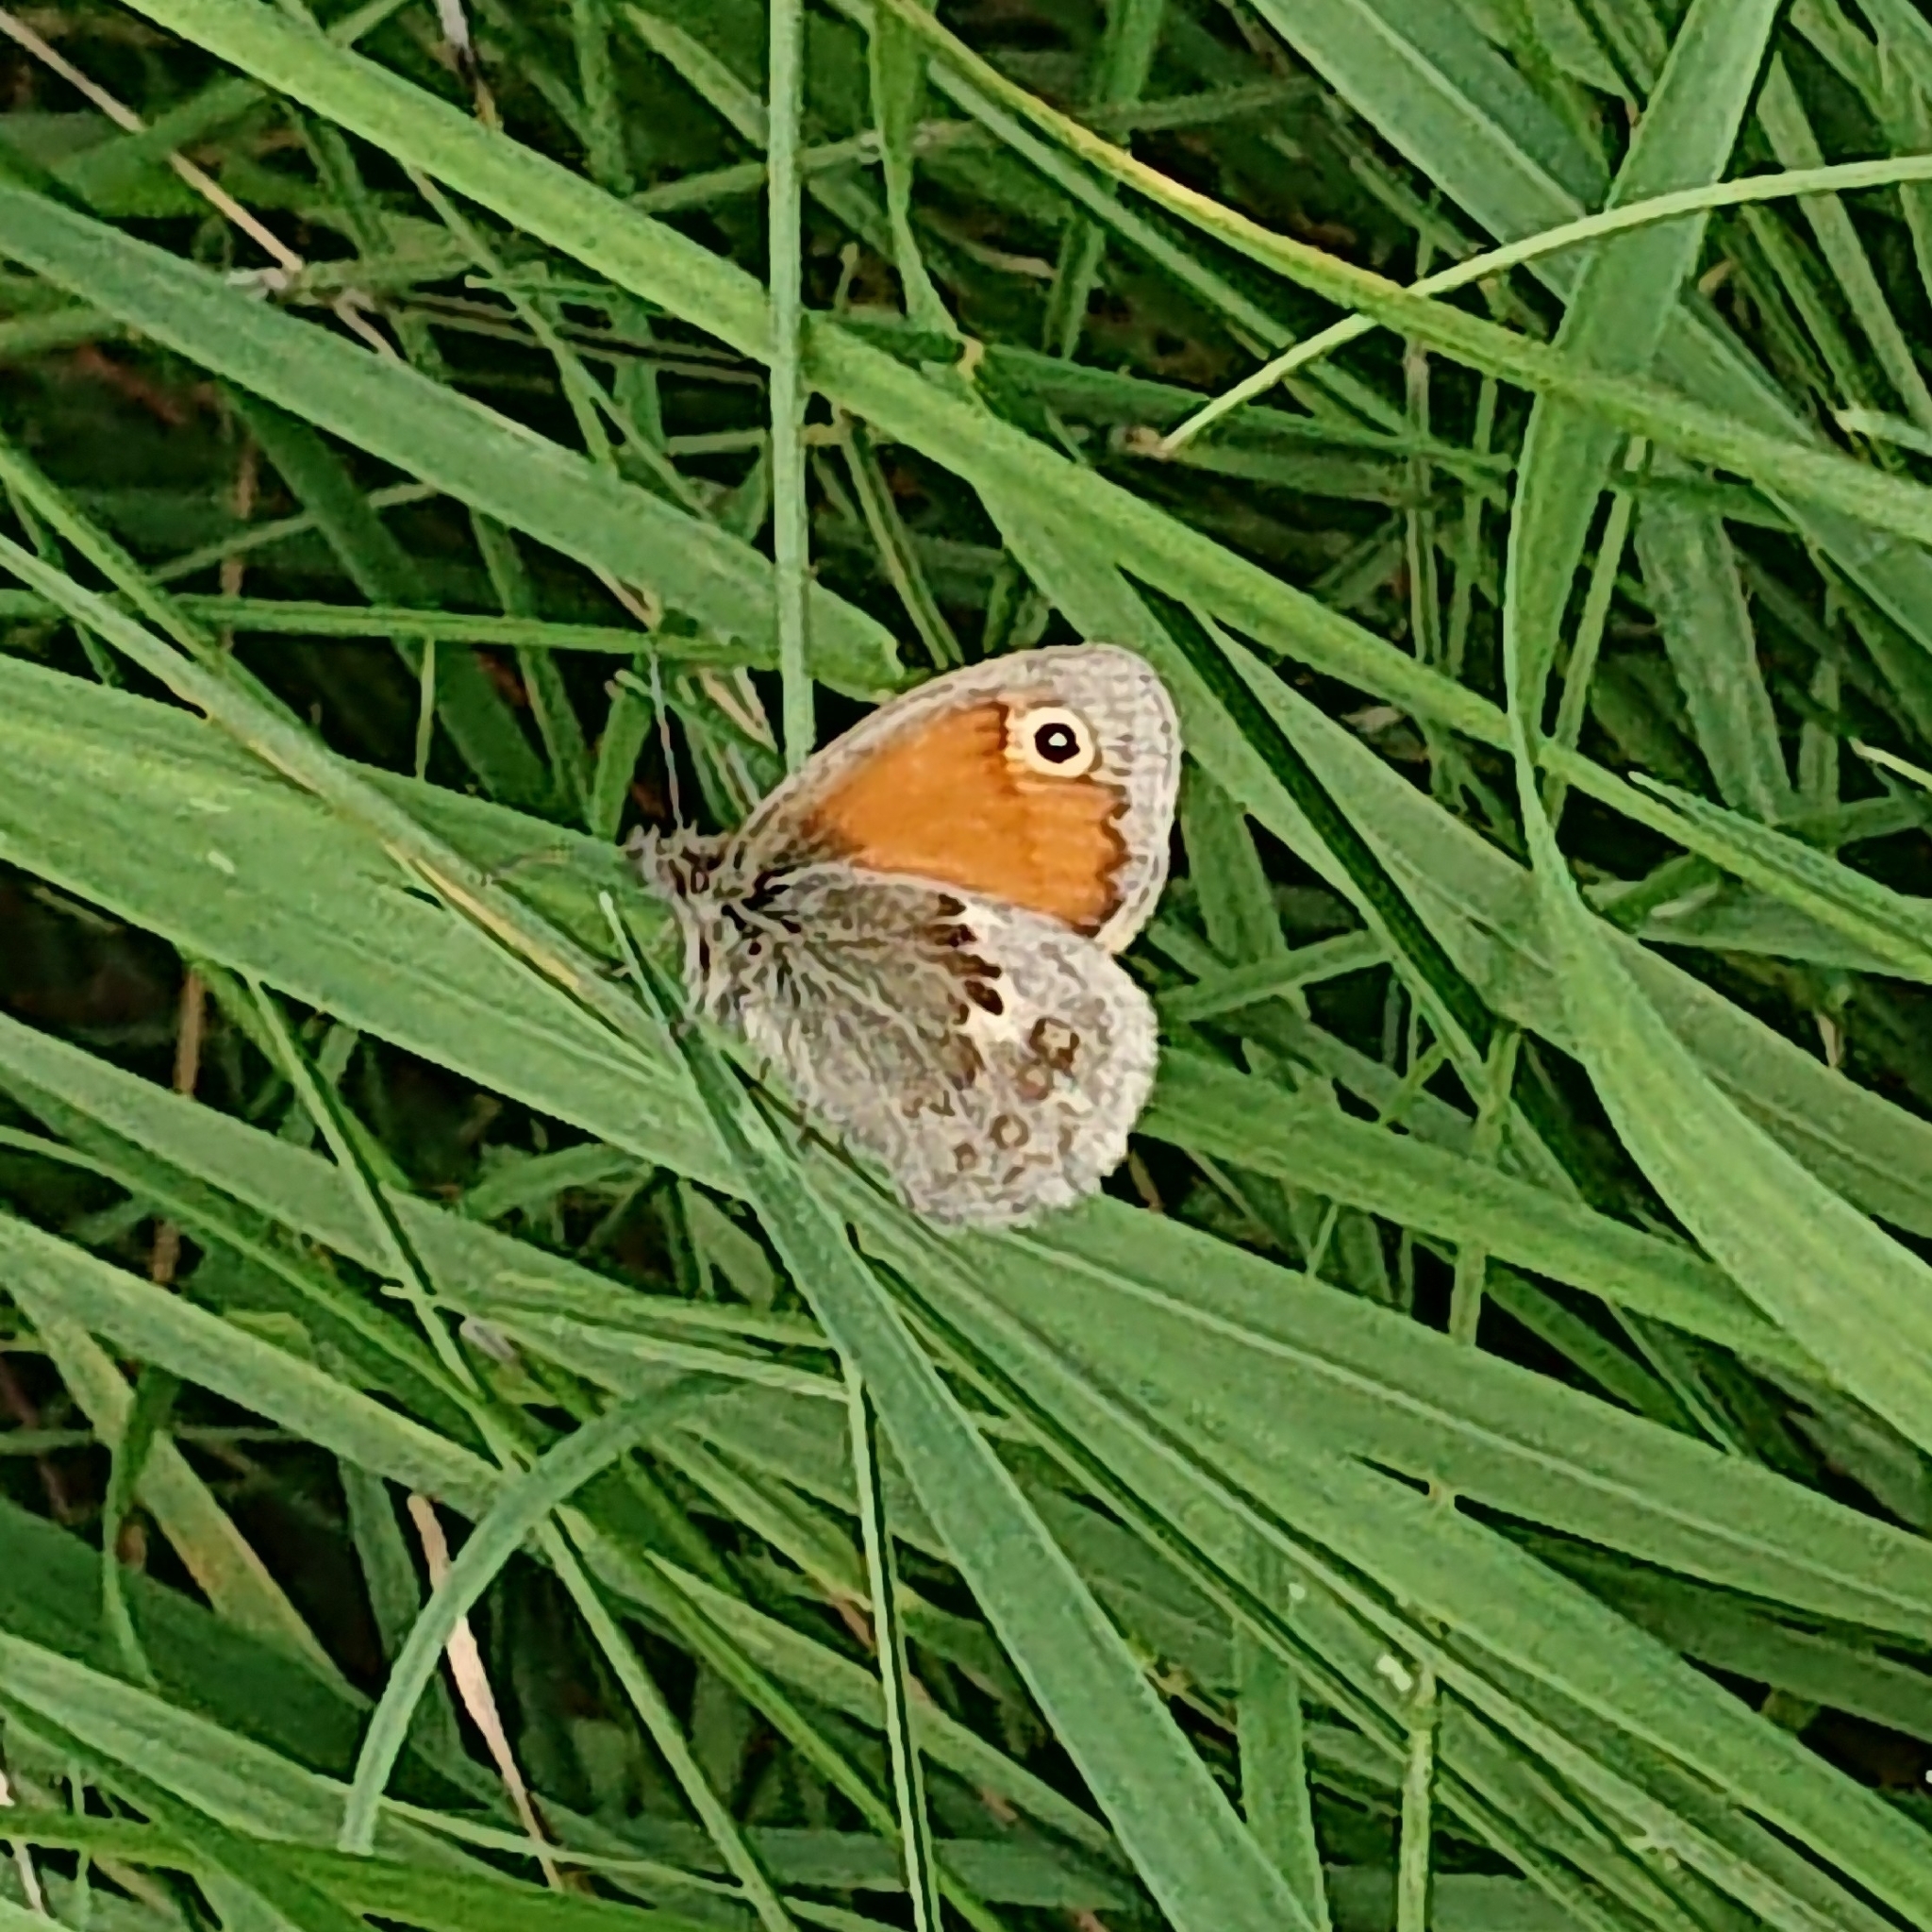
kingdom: Animalia
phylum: Arthropoda
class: Insecta
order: Lepidoptera
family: Nymphalidae
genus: Coenonympha
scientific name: Coenonympha pamphilus
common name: Small heath
